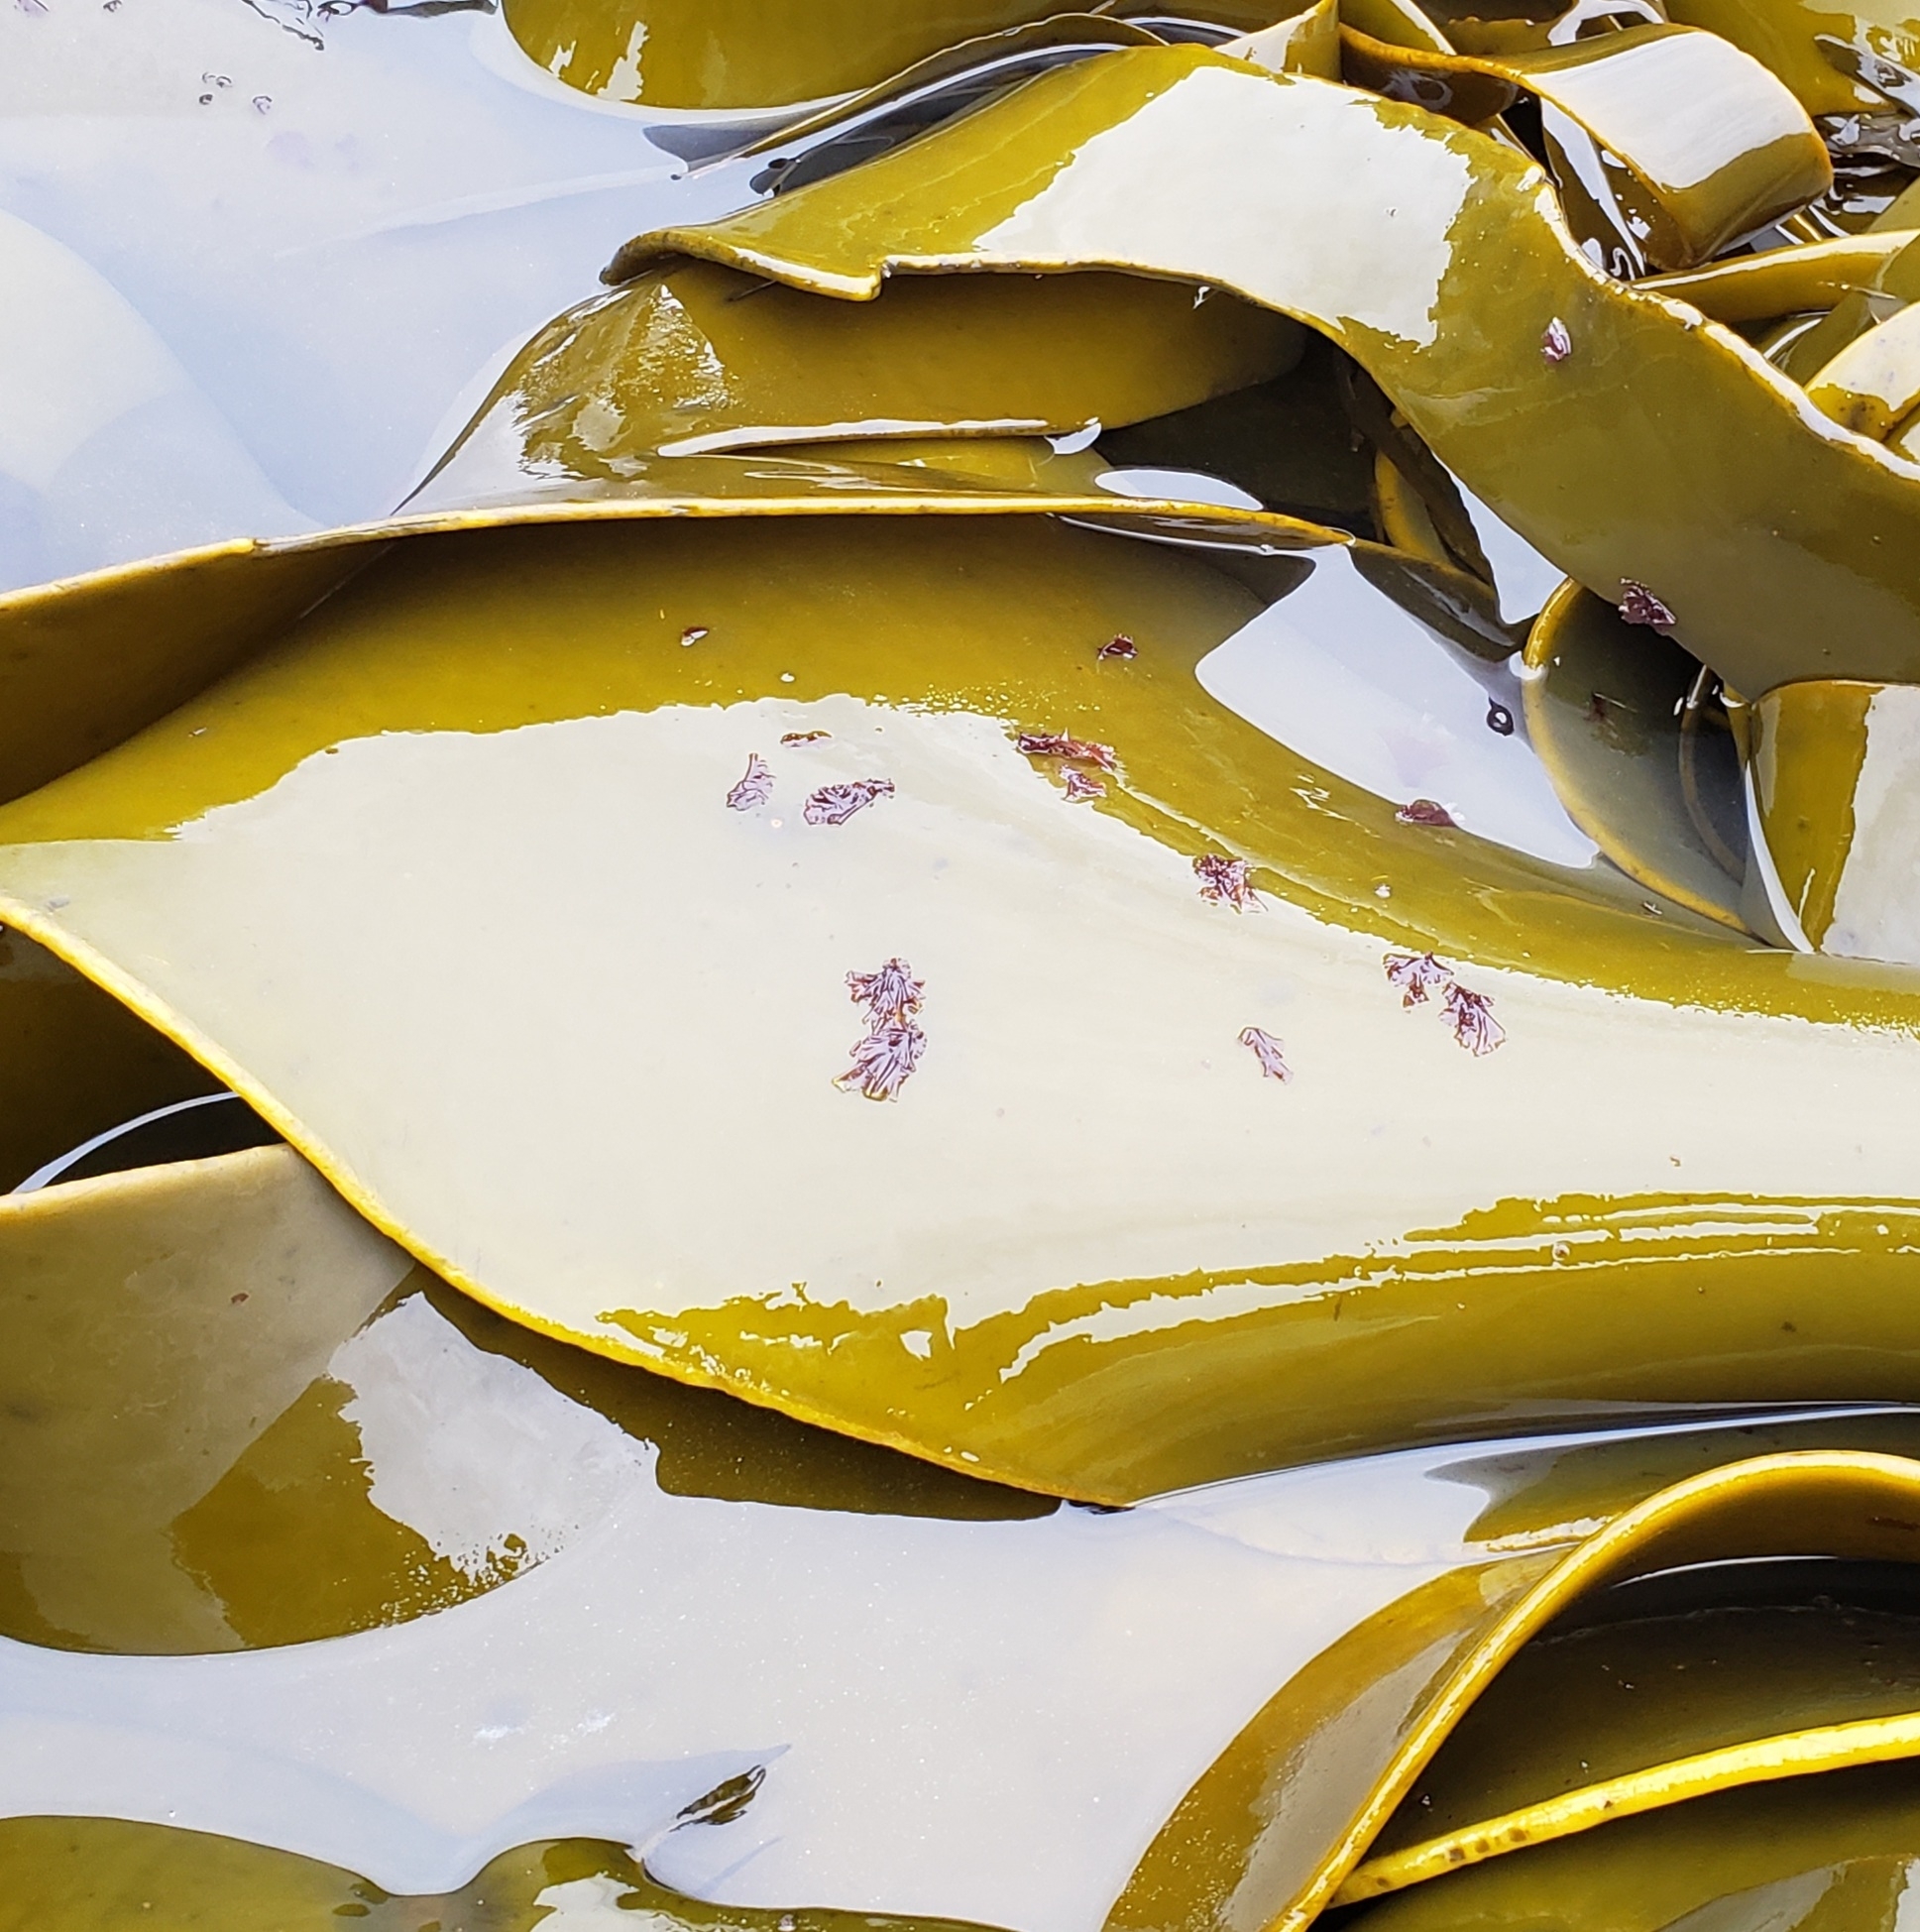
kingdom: Plantae
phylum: Rhodophyta
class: Compsopogonophyceae
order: Erythropeltidales
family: Erythrotrichiaceae
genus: Pyrophyllon
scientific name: Pyrophyllon subtumens
